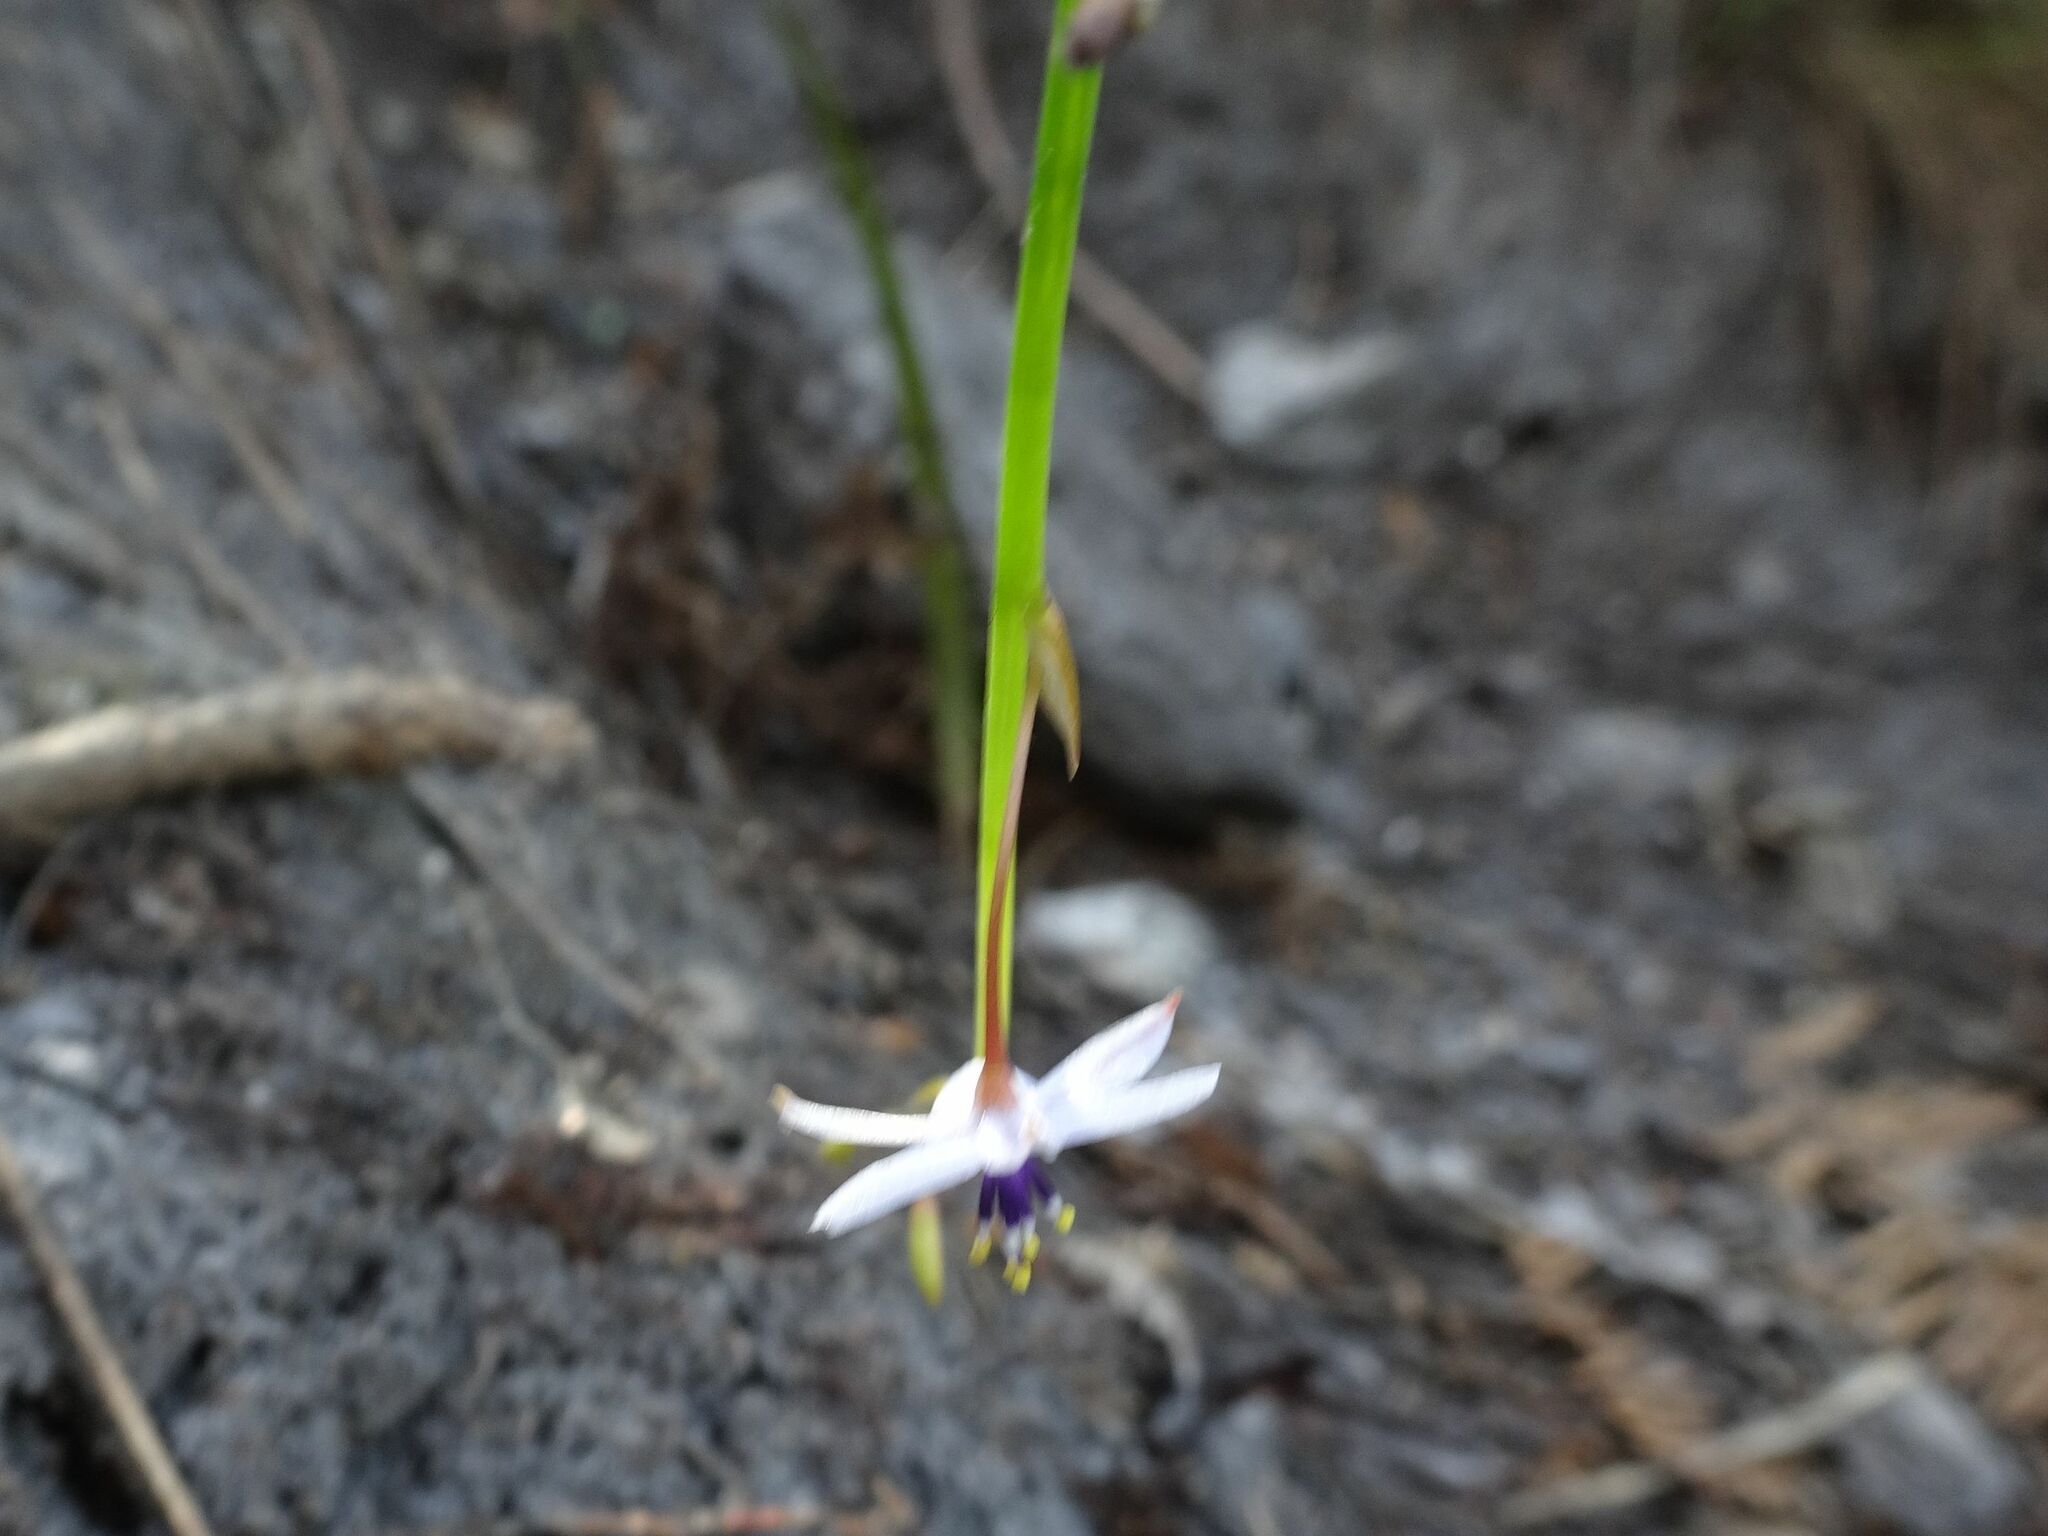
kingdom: Plantae
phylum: Tracheophyta
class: Liliopsida
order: Asparagales
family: Asphodelaceae
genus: Caesia
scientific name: Caesia contorta
